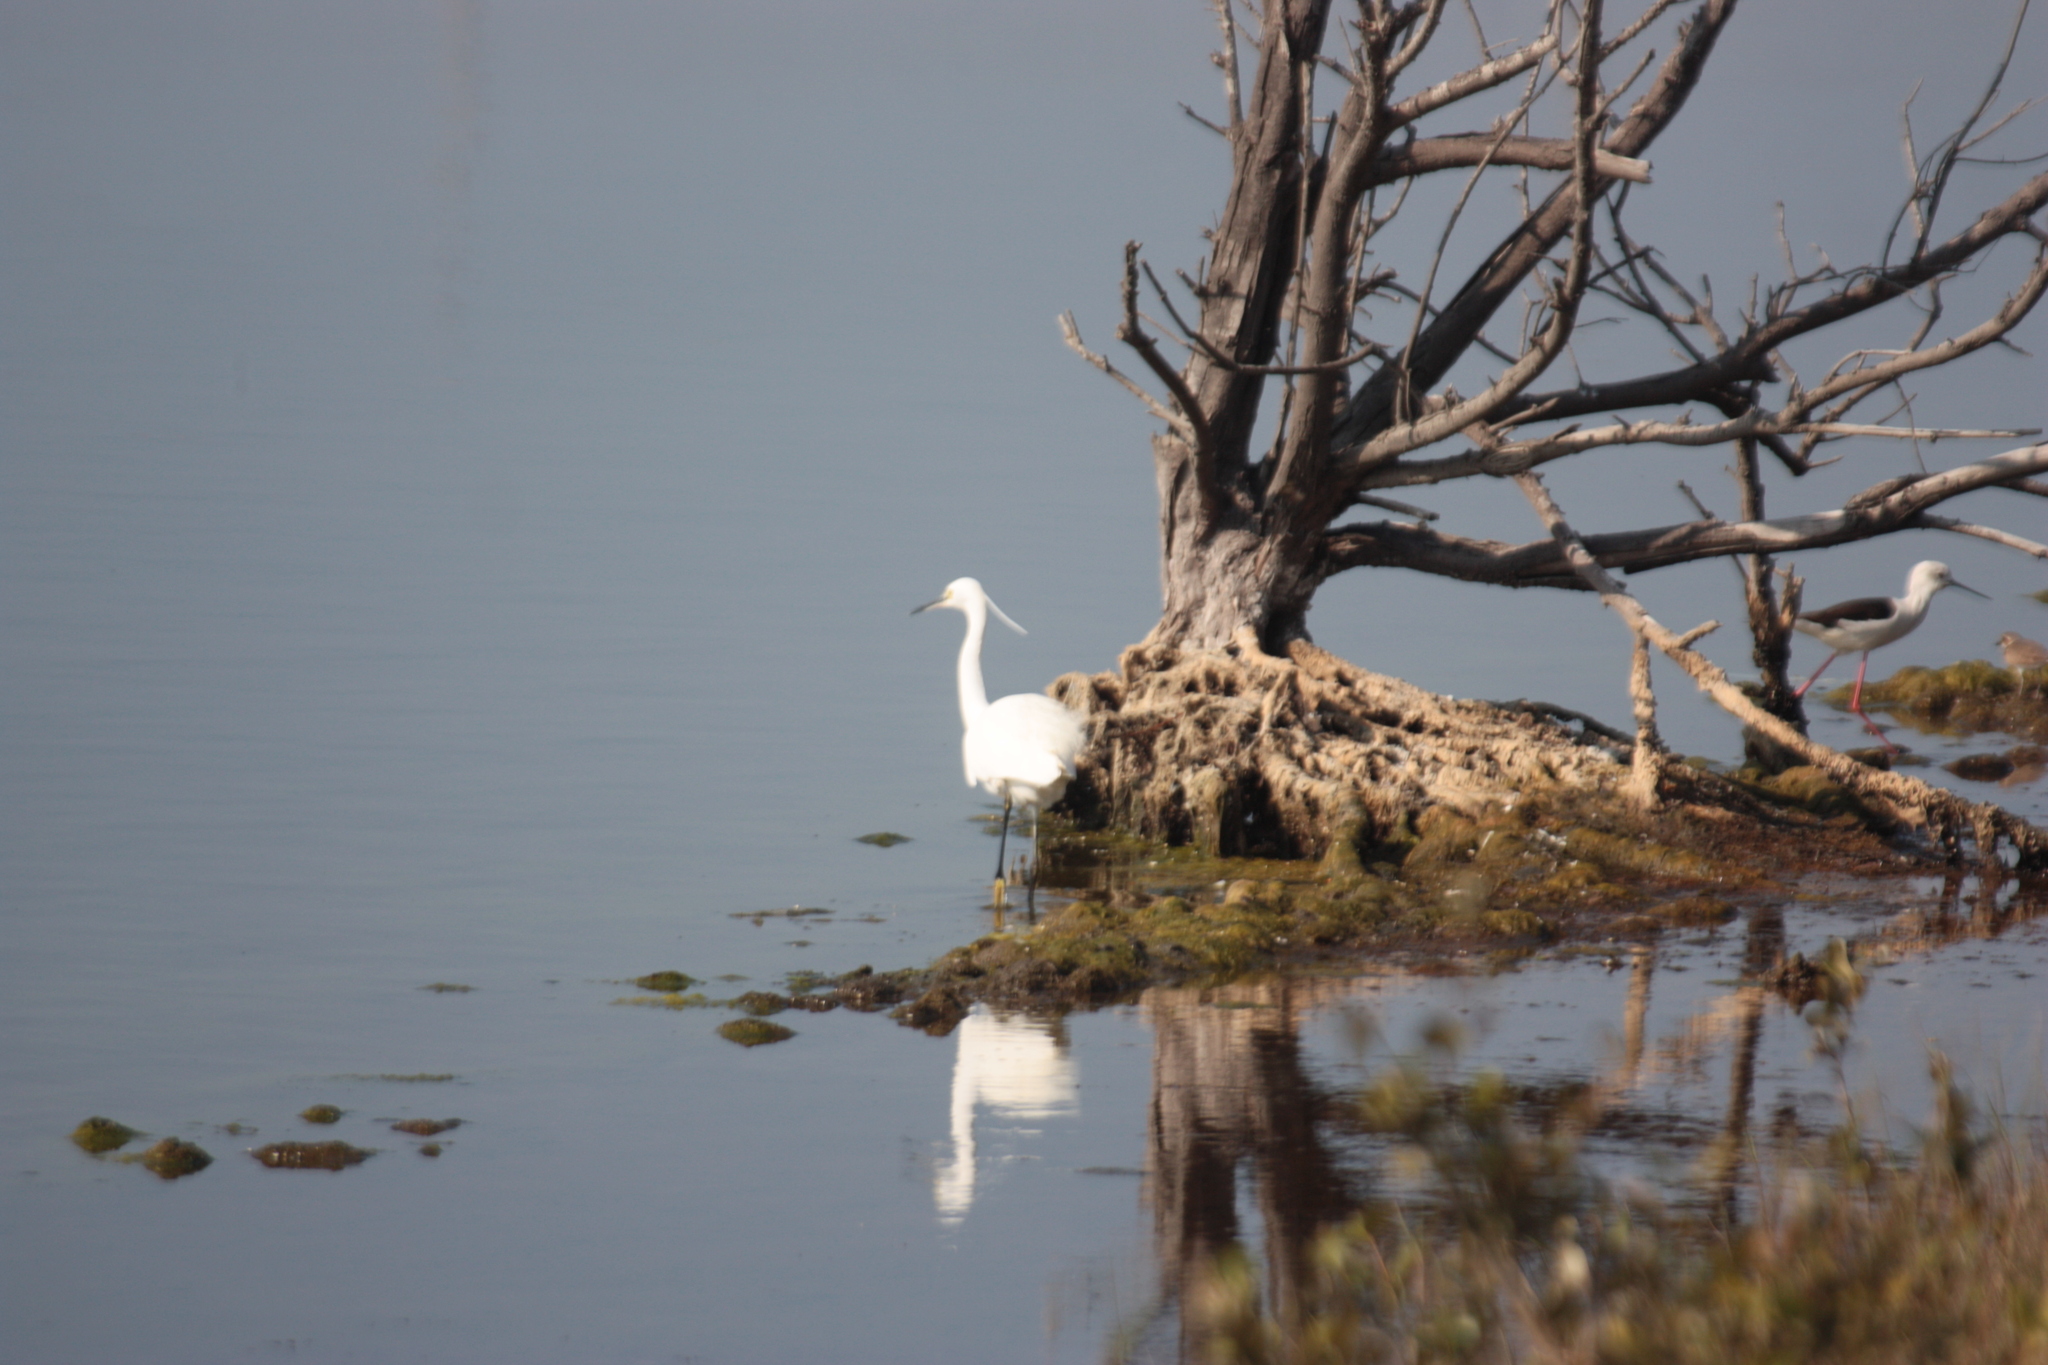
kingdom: Animalia
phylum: Chordata
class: Aves
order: Pelecaniformes
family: Ardeidae
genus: Egretta
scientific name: Egretta garzetta
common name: Little egret
